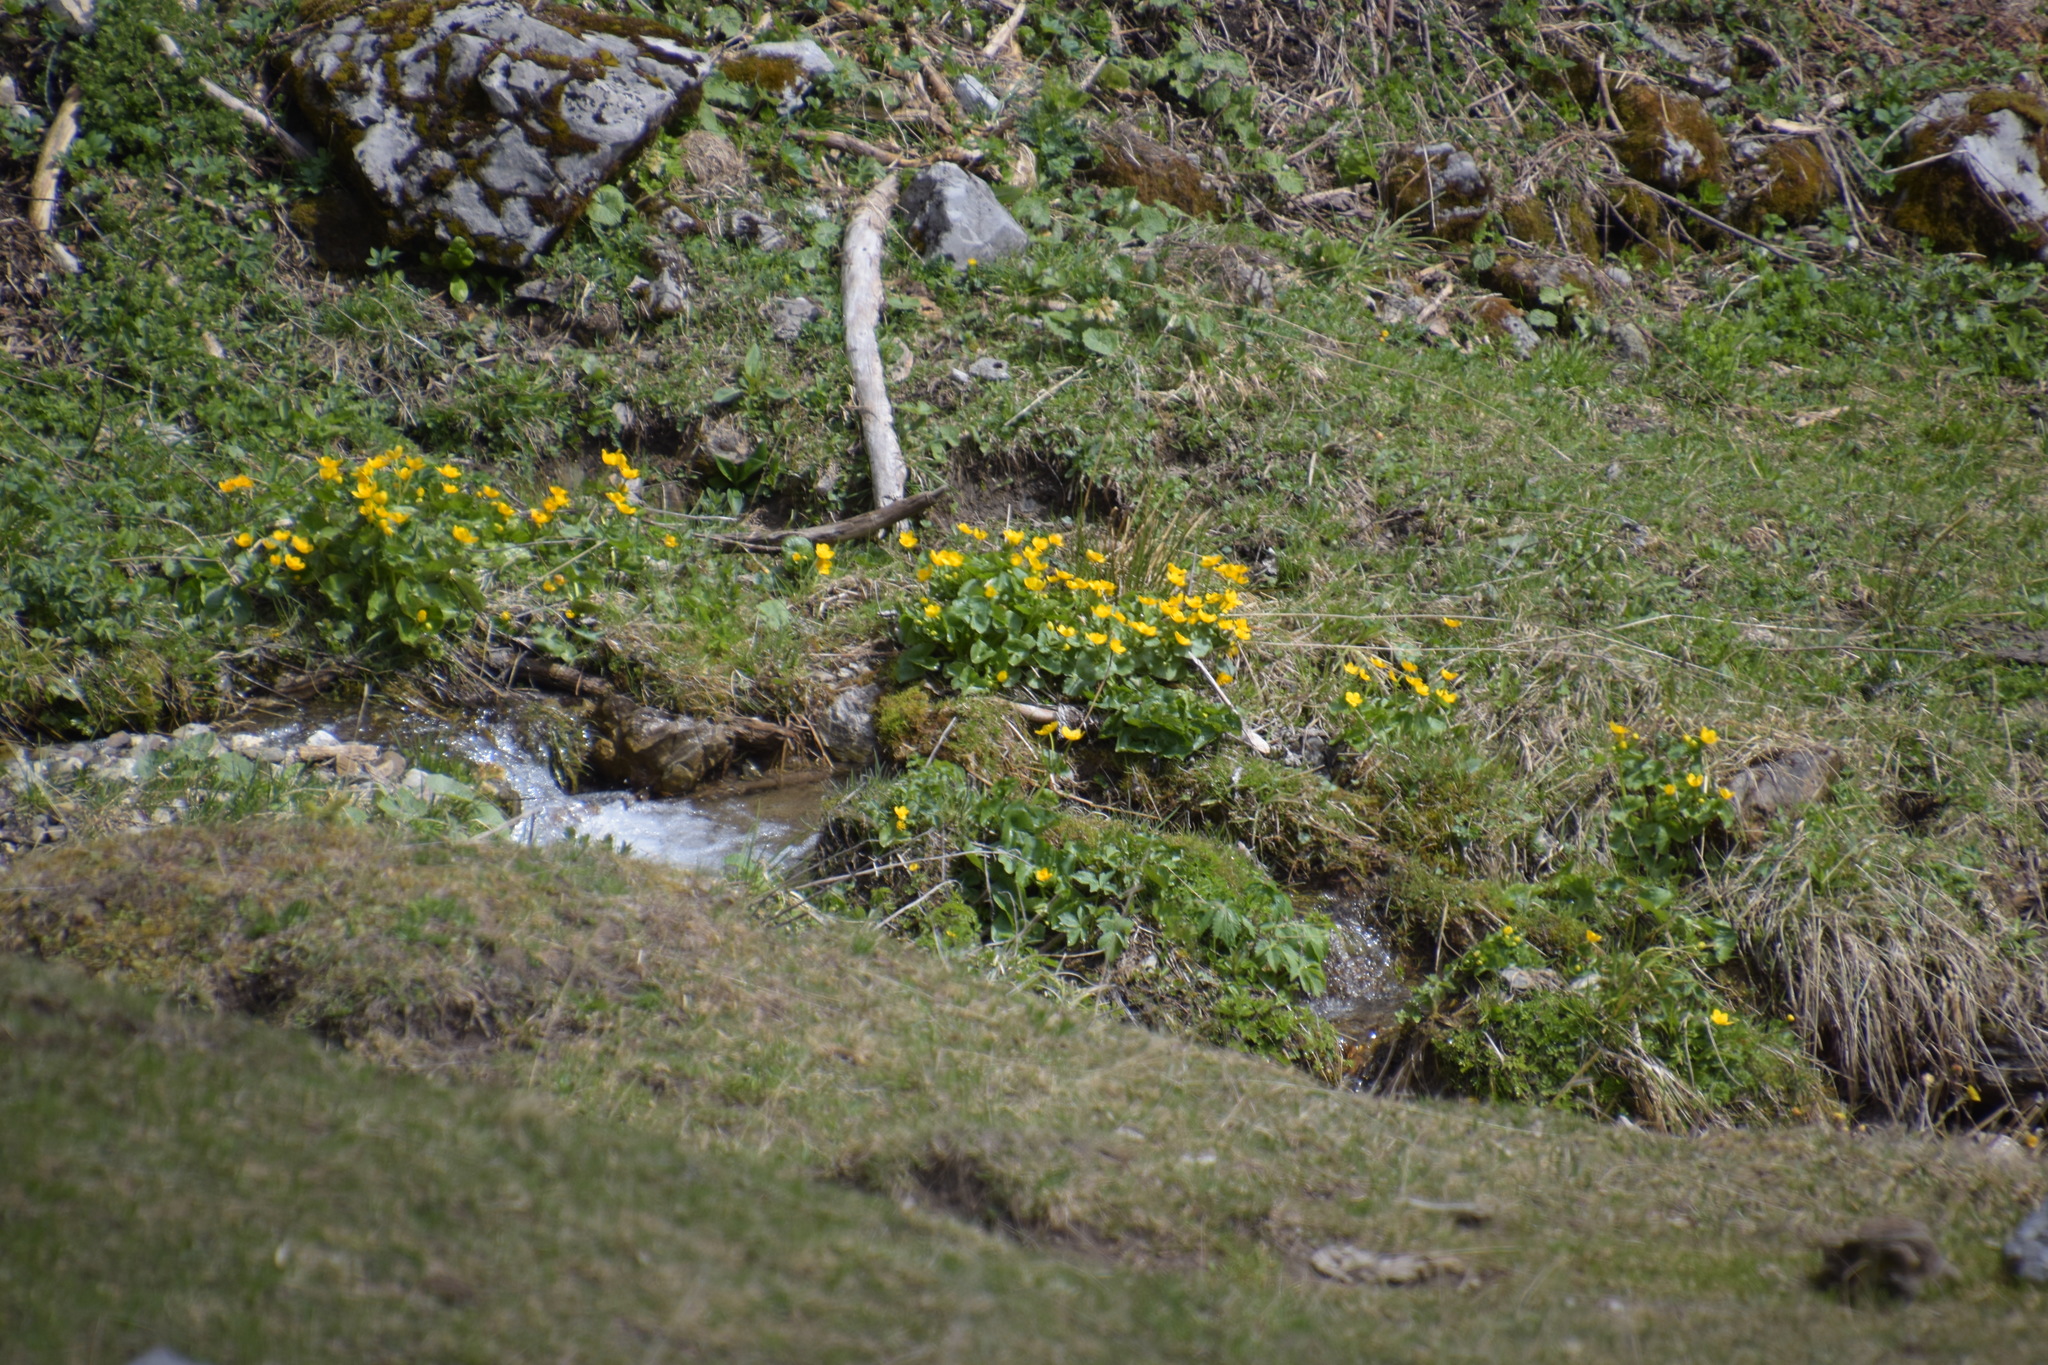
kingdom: Plantae
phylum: Tracheophyta
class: Magnoliopsida
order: Ranunculales
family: Ranunculaceae
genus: Caltha
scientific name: Caltha palustris
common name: Marsh marigold
